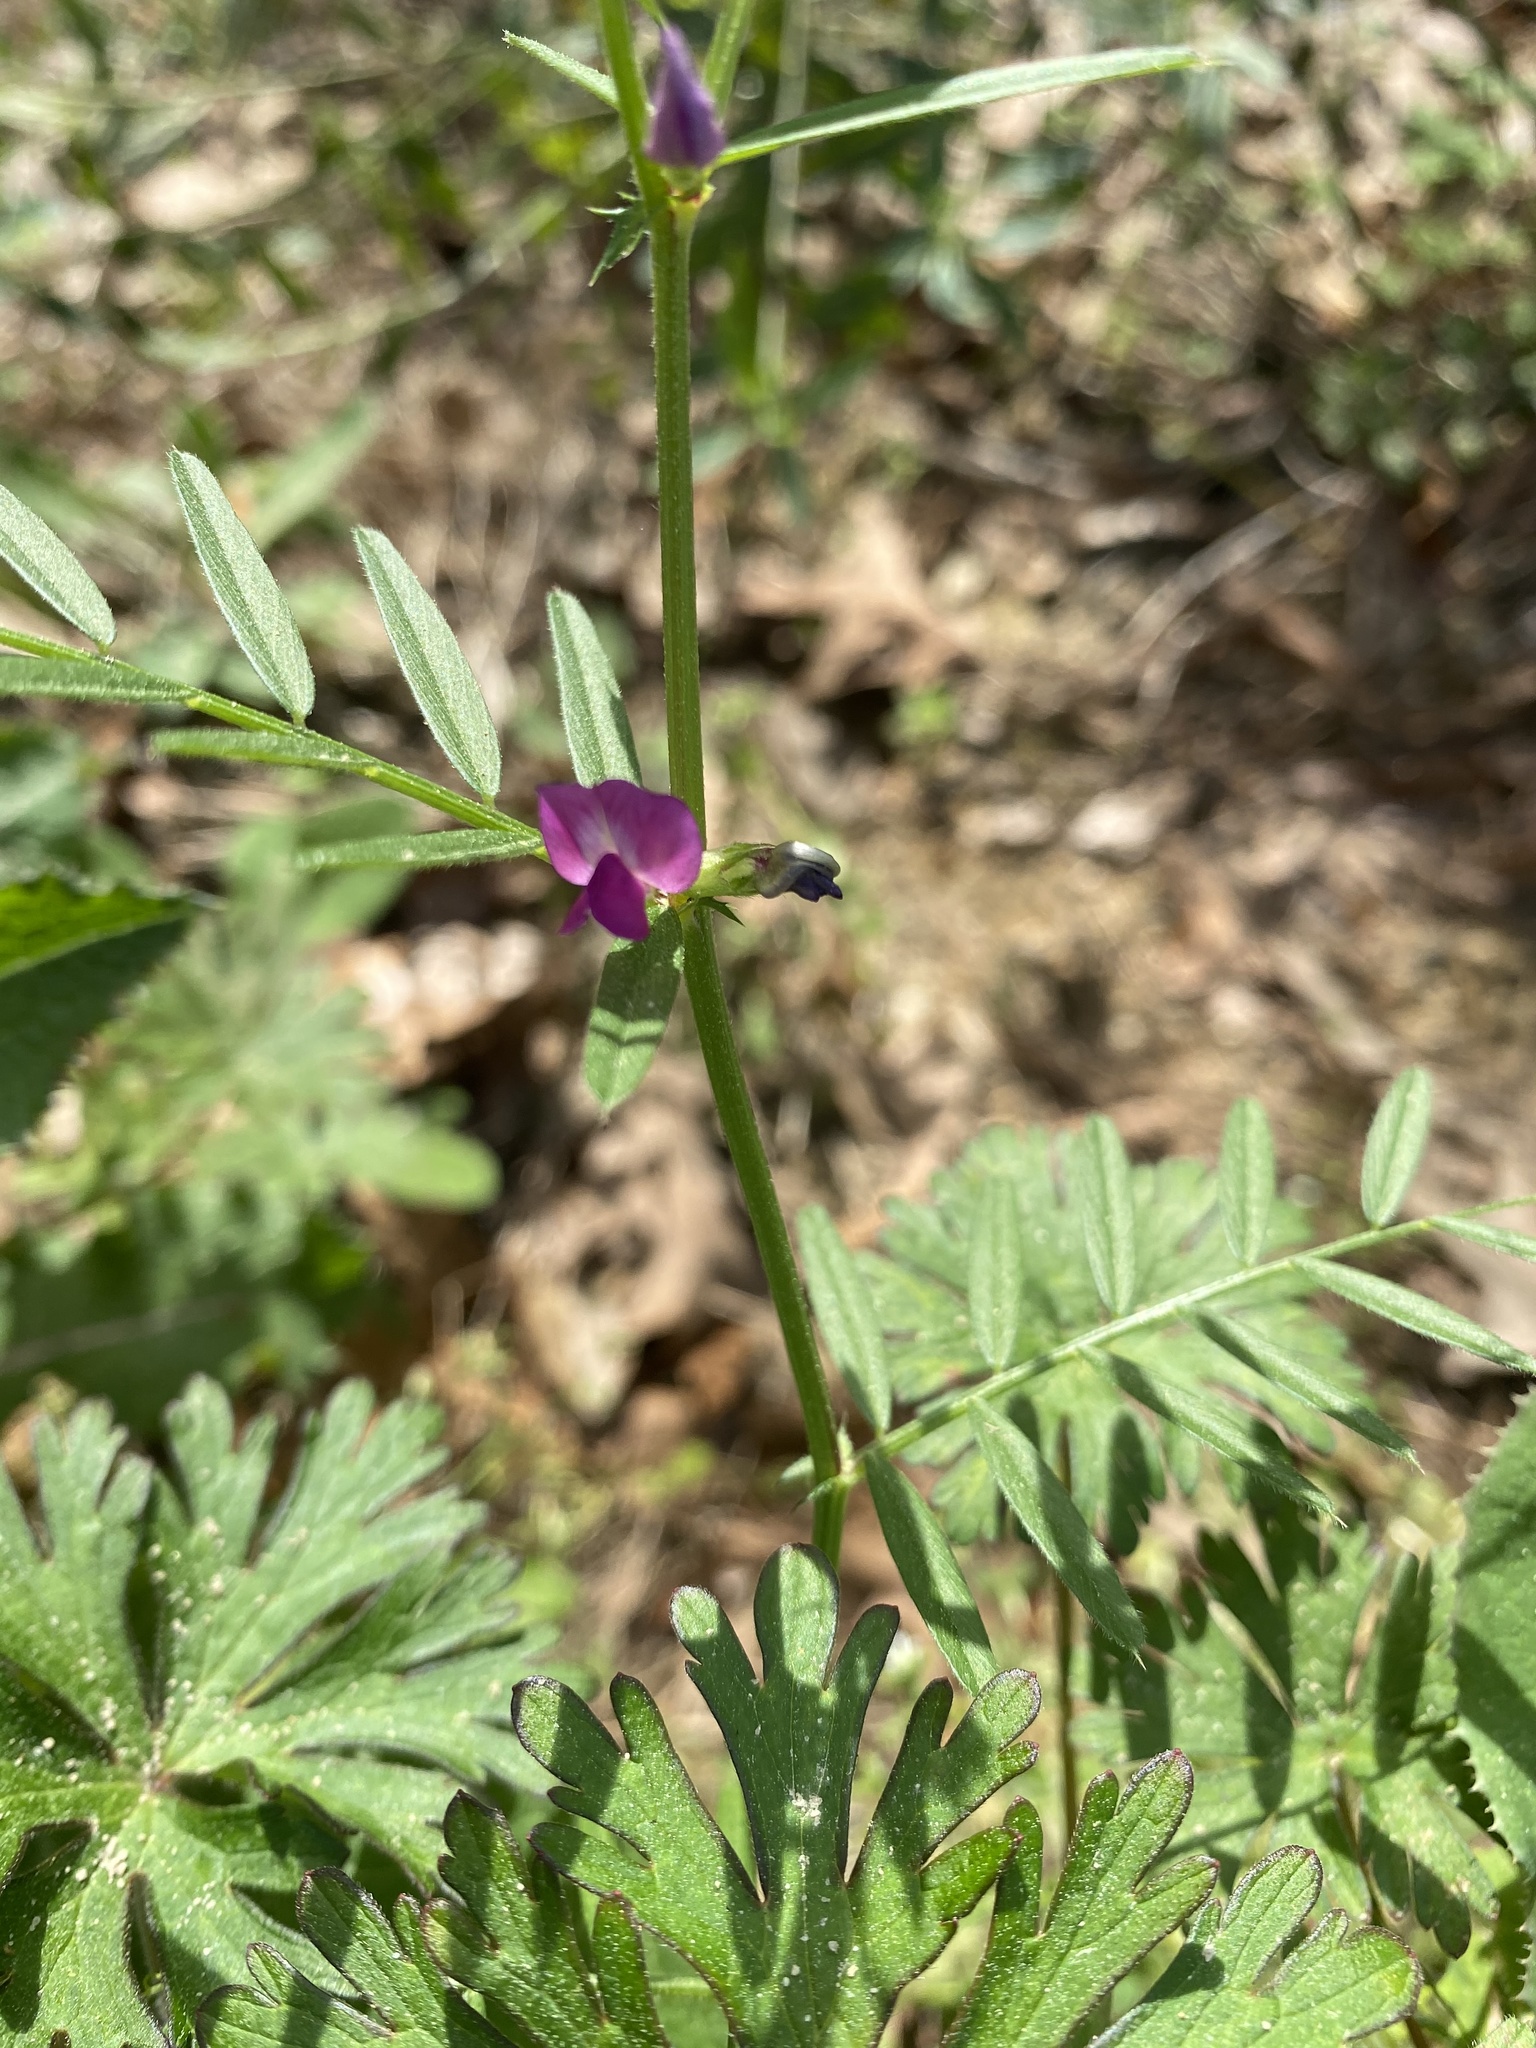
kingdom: Plantae
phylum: Tracheophyta
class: Magnoliopsida
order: Fabales
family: Fabaceae
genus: Vicia
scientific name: Vicia sativa
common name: Garden vetch
